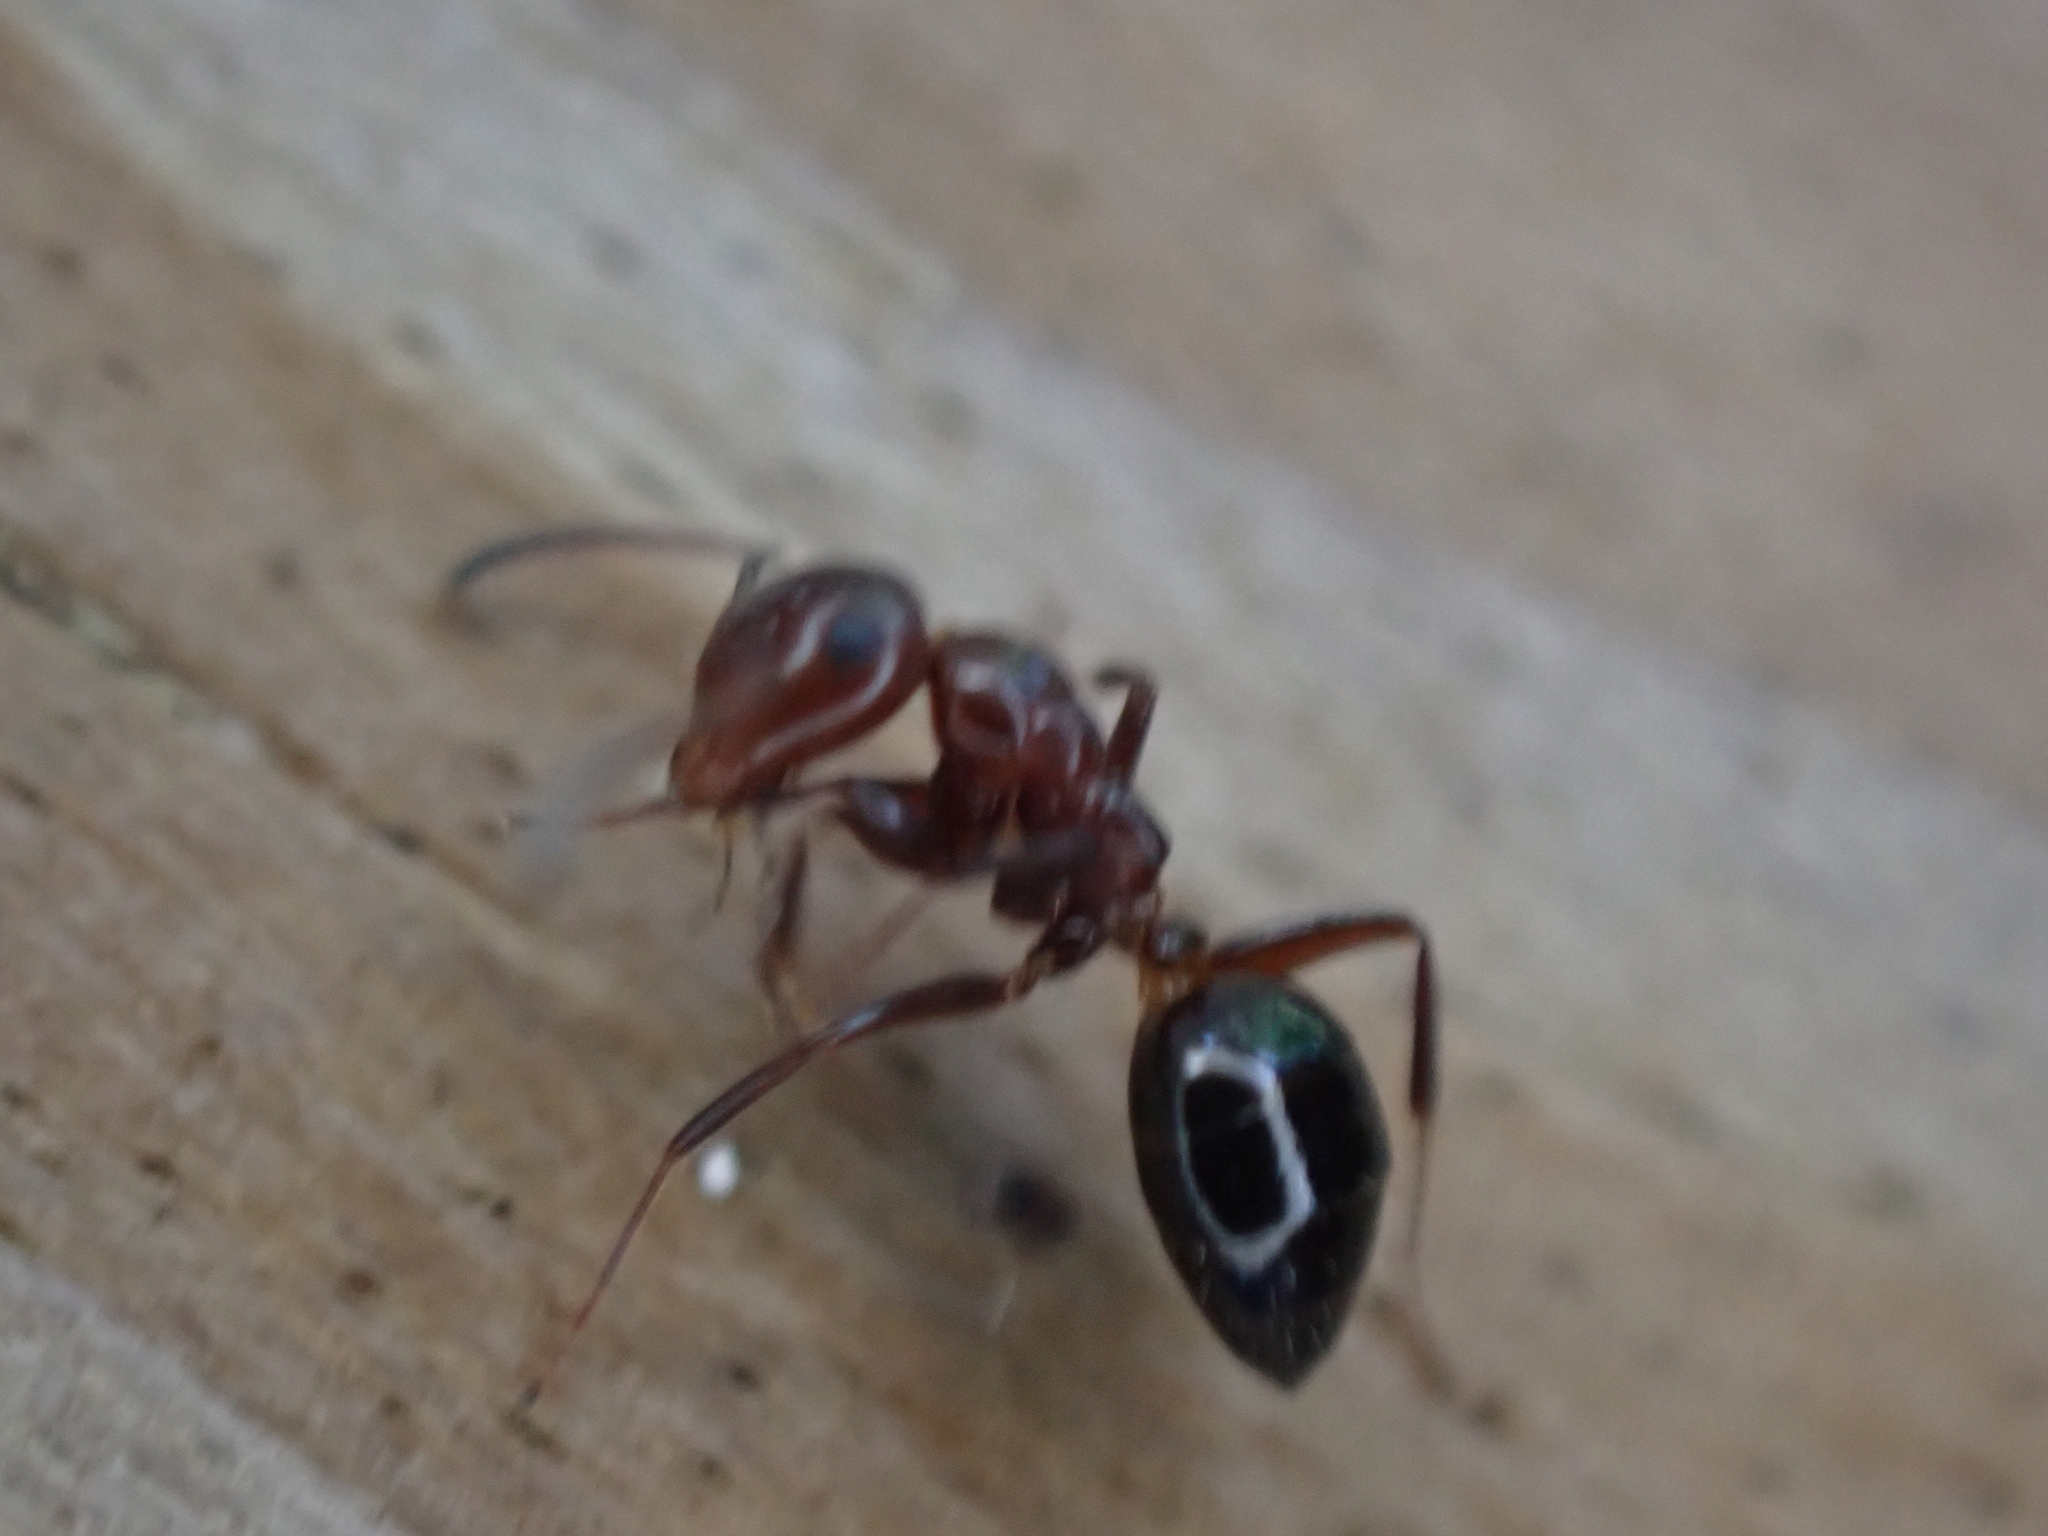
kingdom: Animalia
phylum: Arthropoda
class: Insecta
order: Hymenoptera
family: Formicidae
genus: Colobopsis
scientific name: Colobopsis impressa
